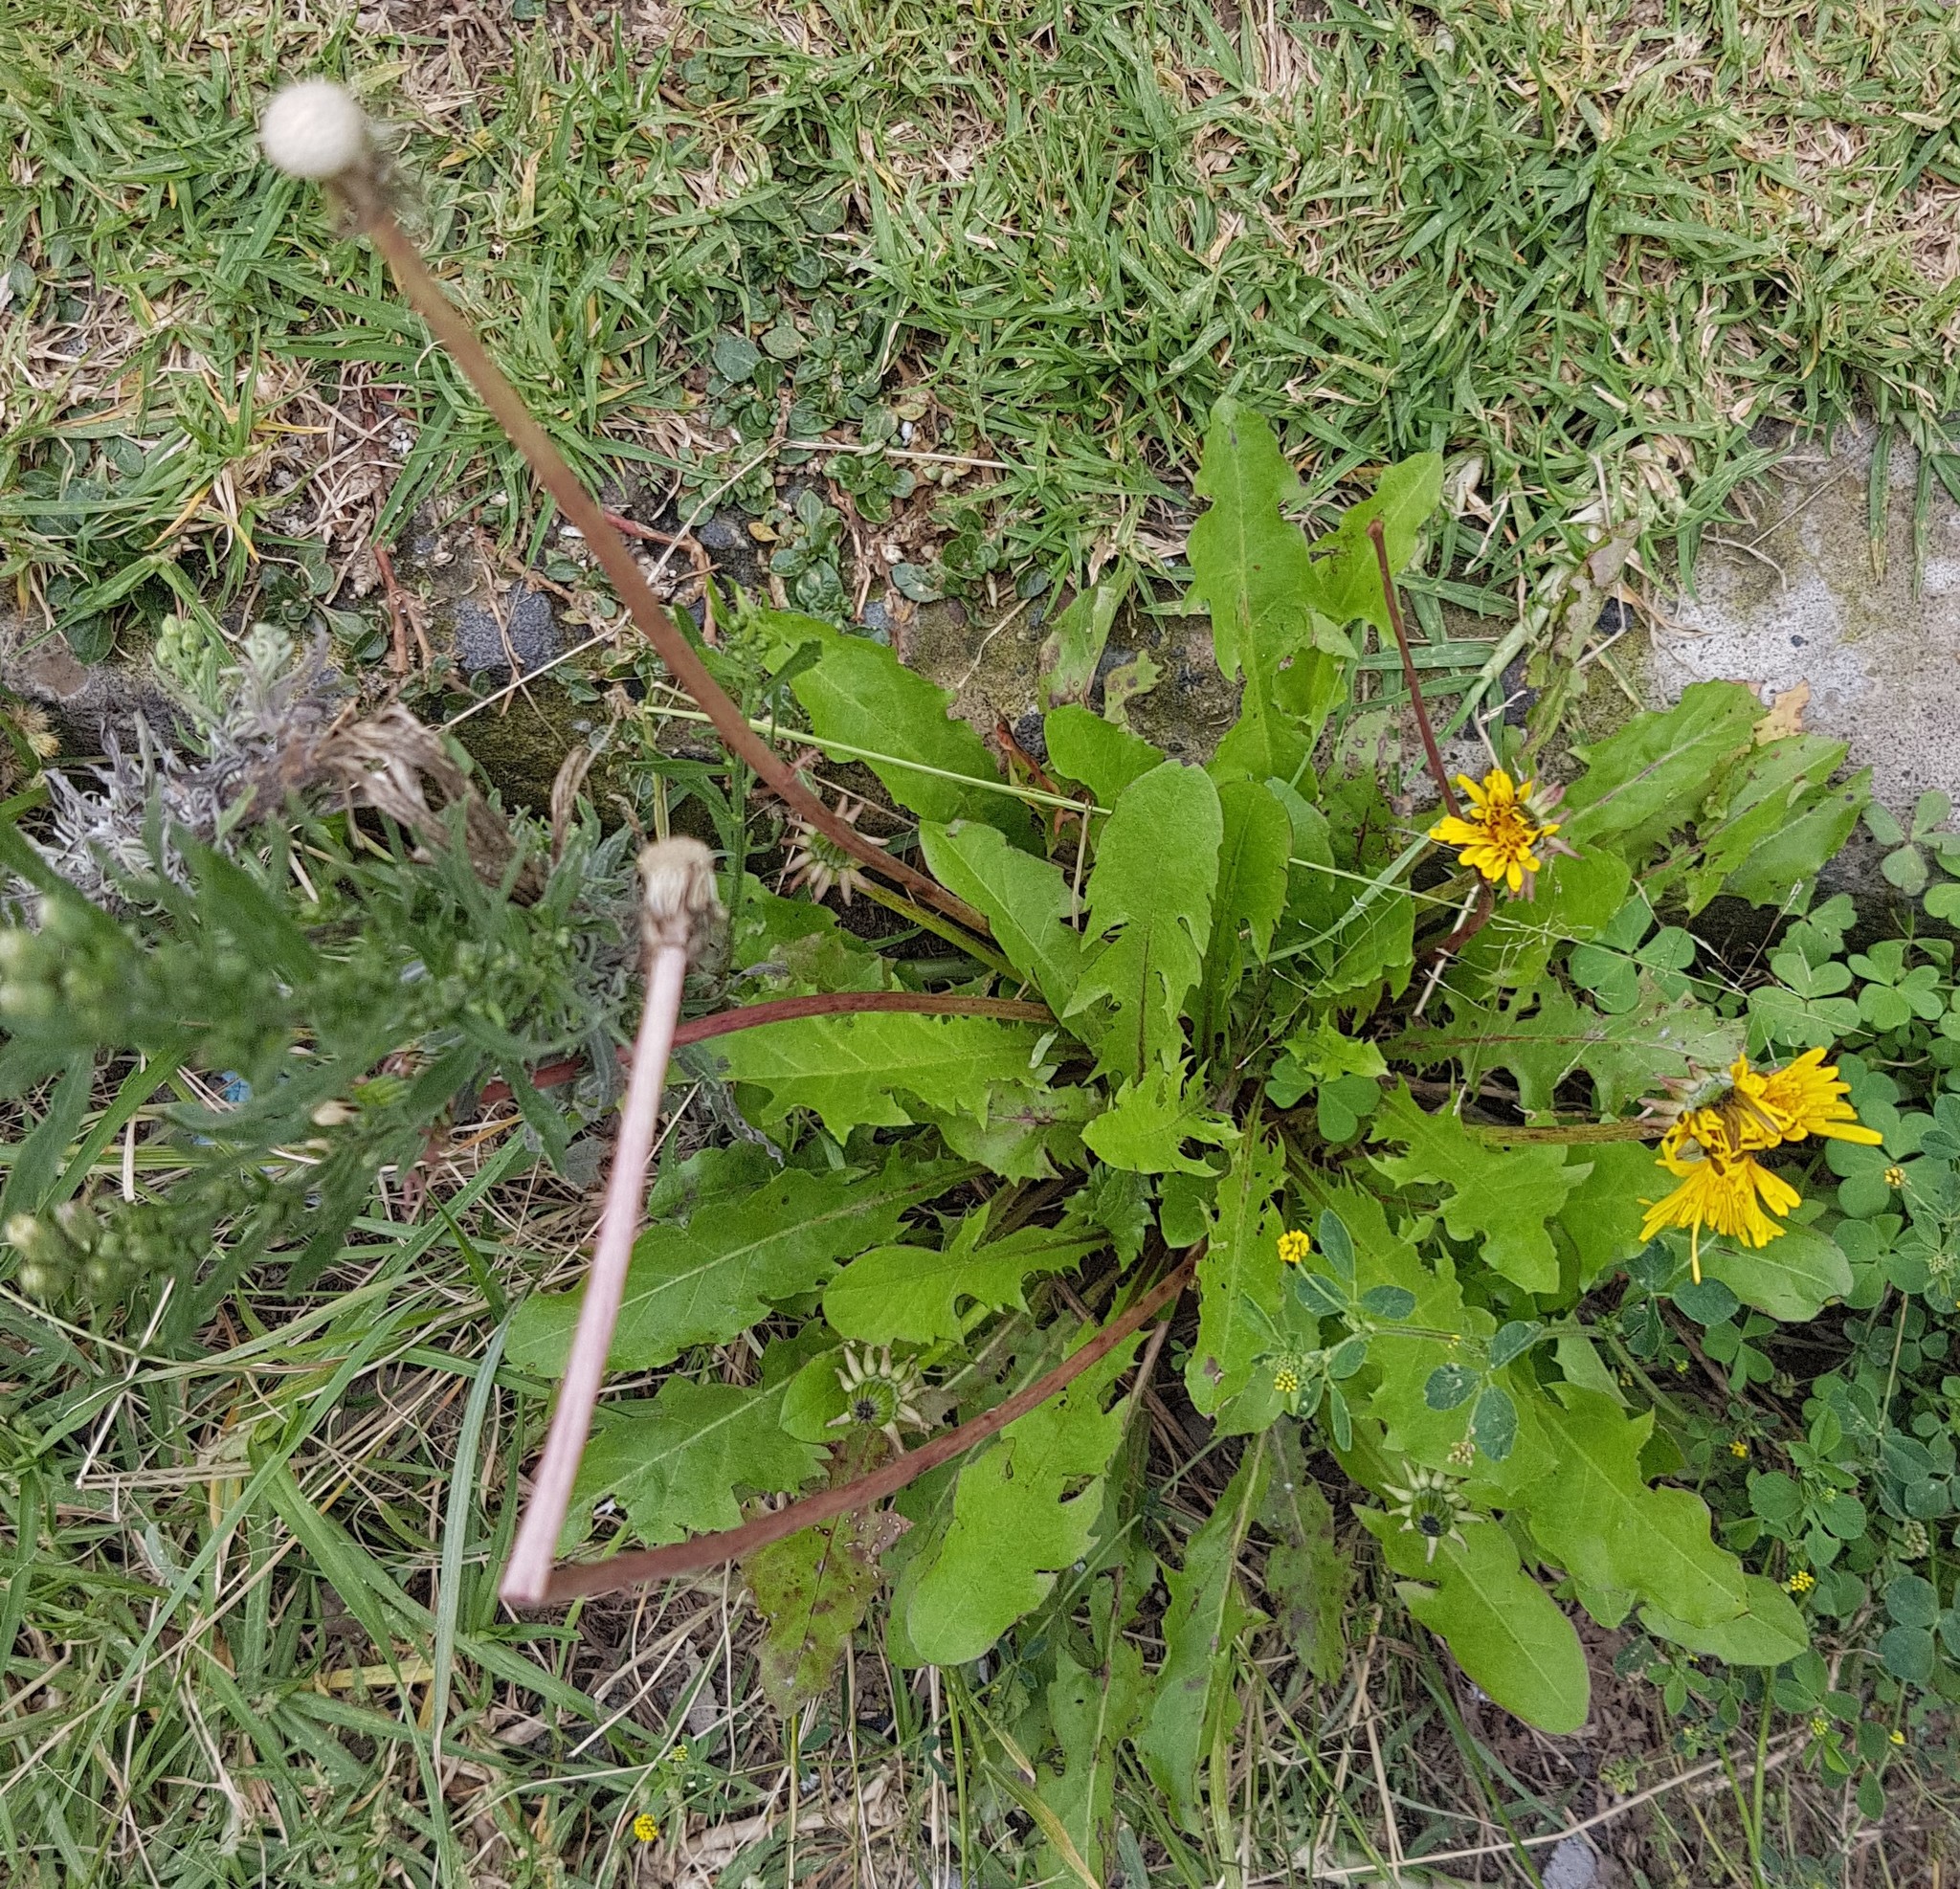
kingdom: Plantae
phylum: Tracheophyta
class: Magnoliopsida
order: Asterales
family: Asteraceae
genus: Taraxacum
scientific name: Taraxacum officinale
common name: Common dandelion
